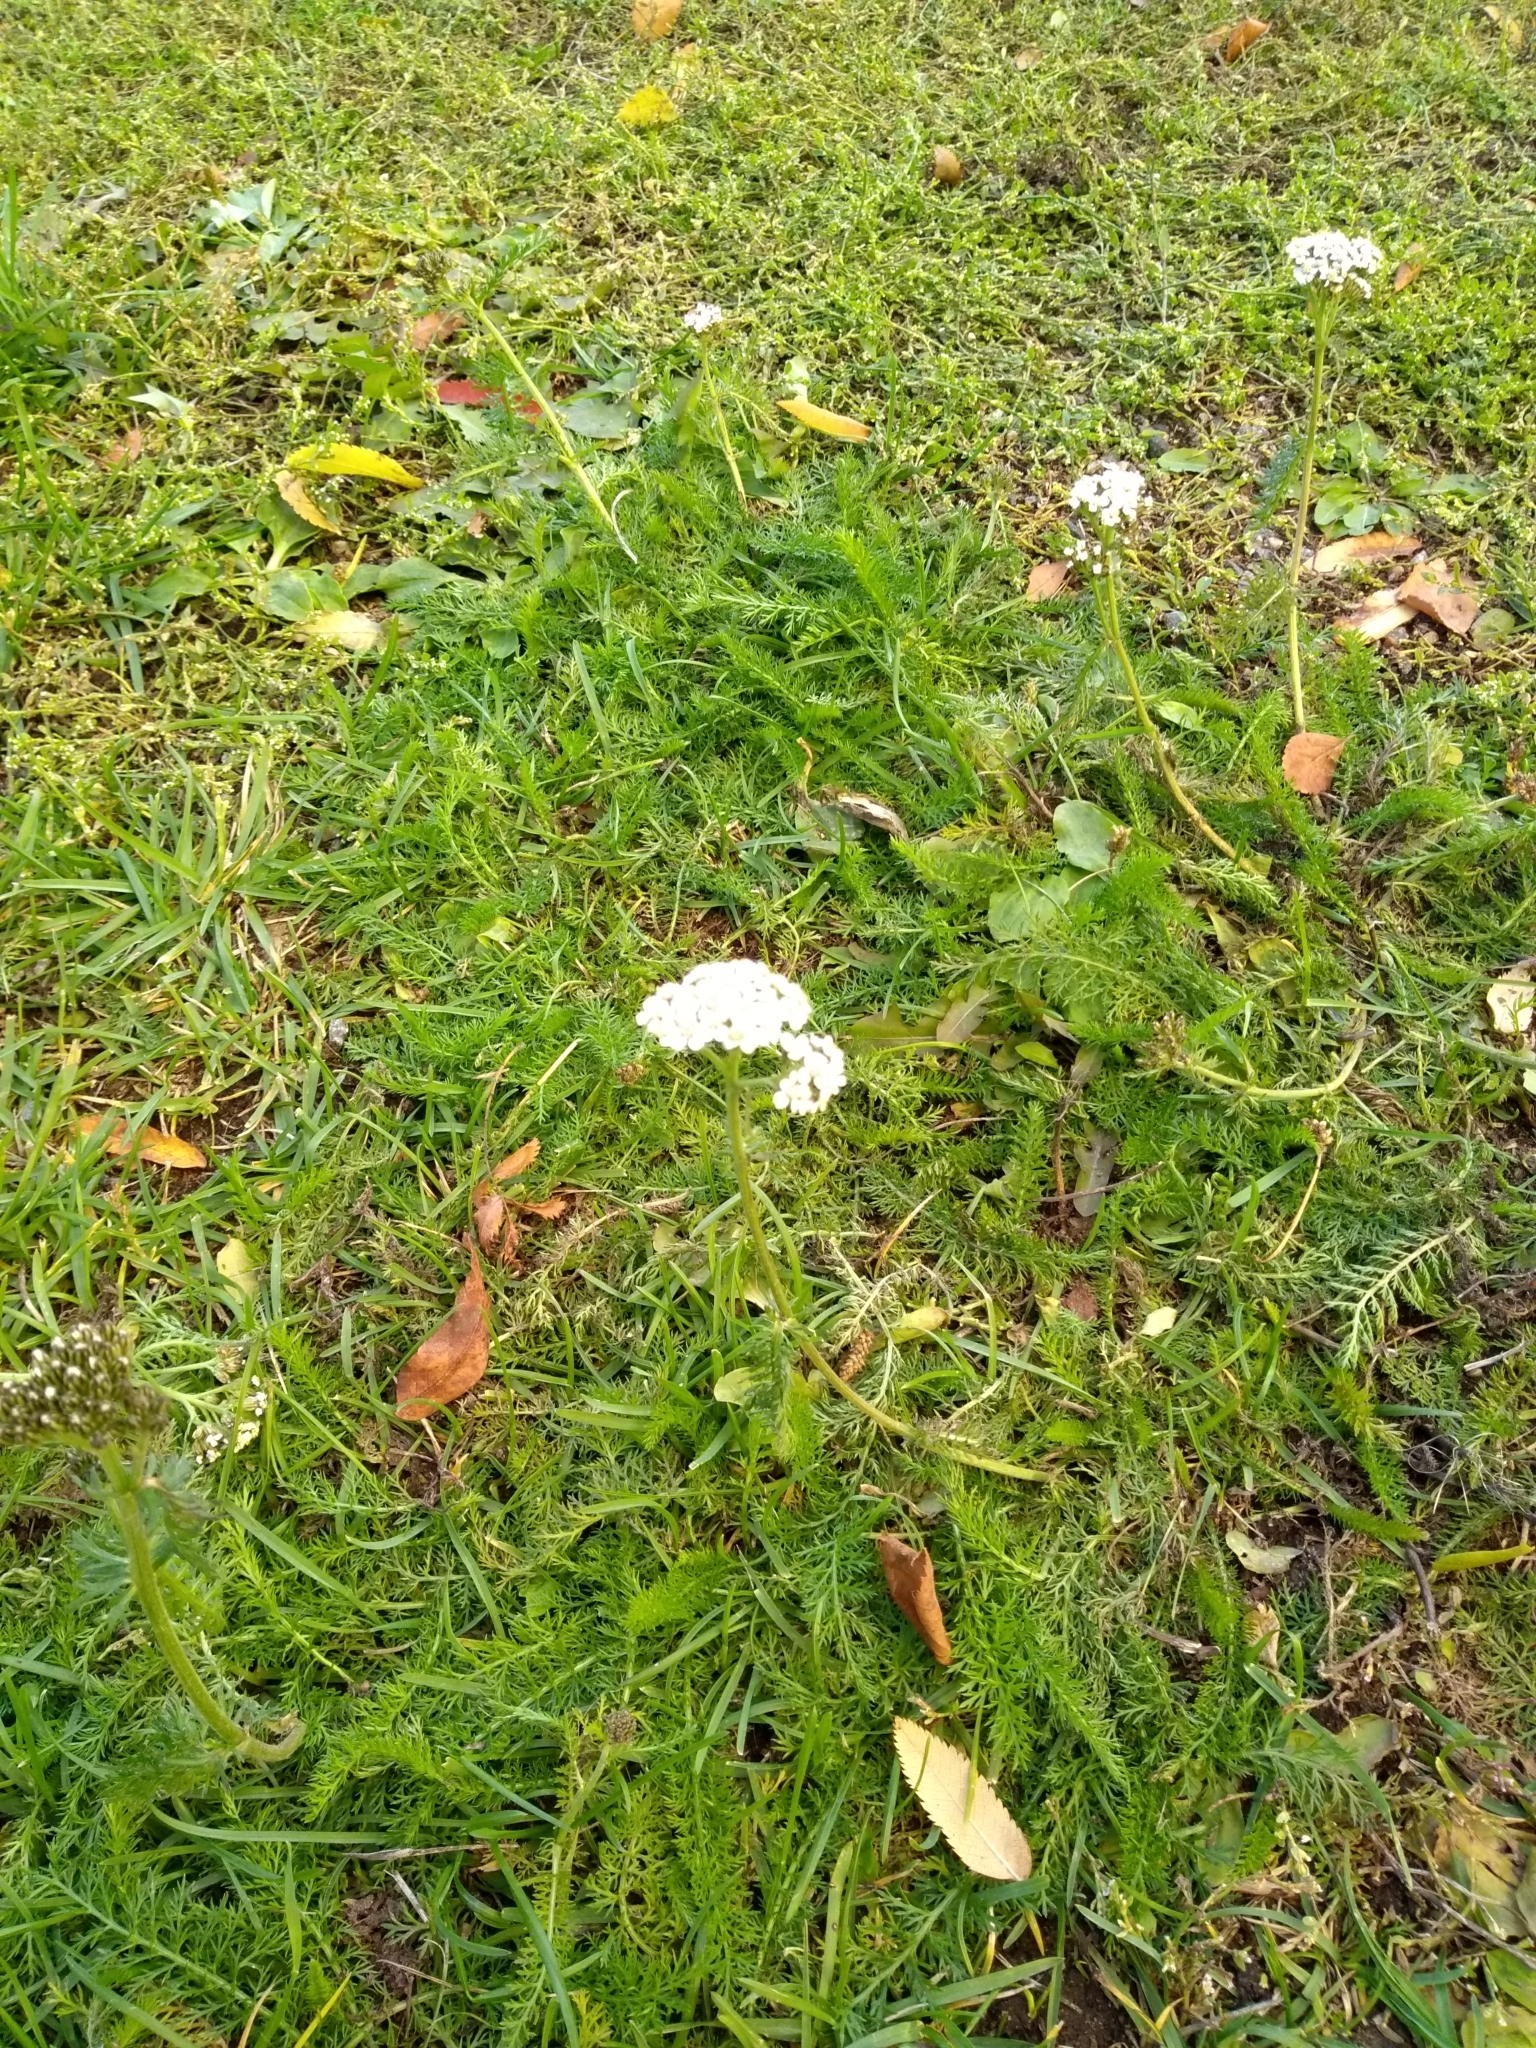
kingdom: Plantae
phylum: Tracheophyta
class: Magnoliopsida
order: Asterales
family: Asteraceae
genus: Achillea
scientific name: Achillea millefolium
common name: Yarrow
